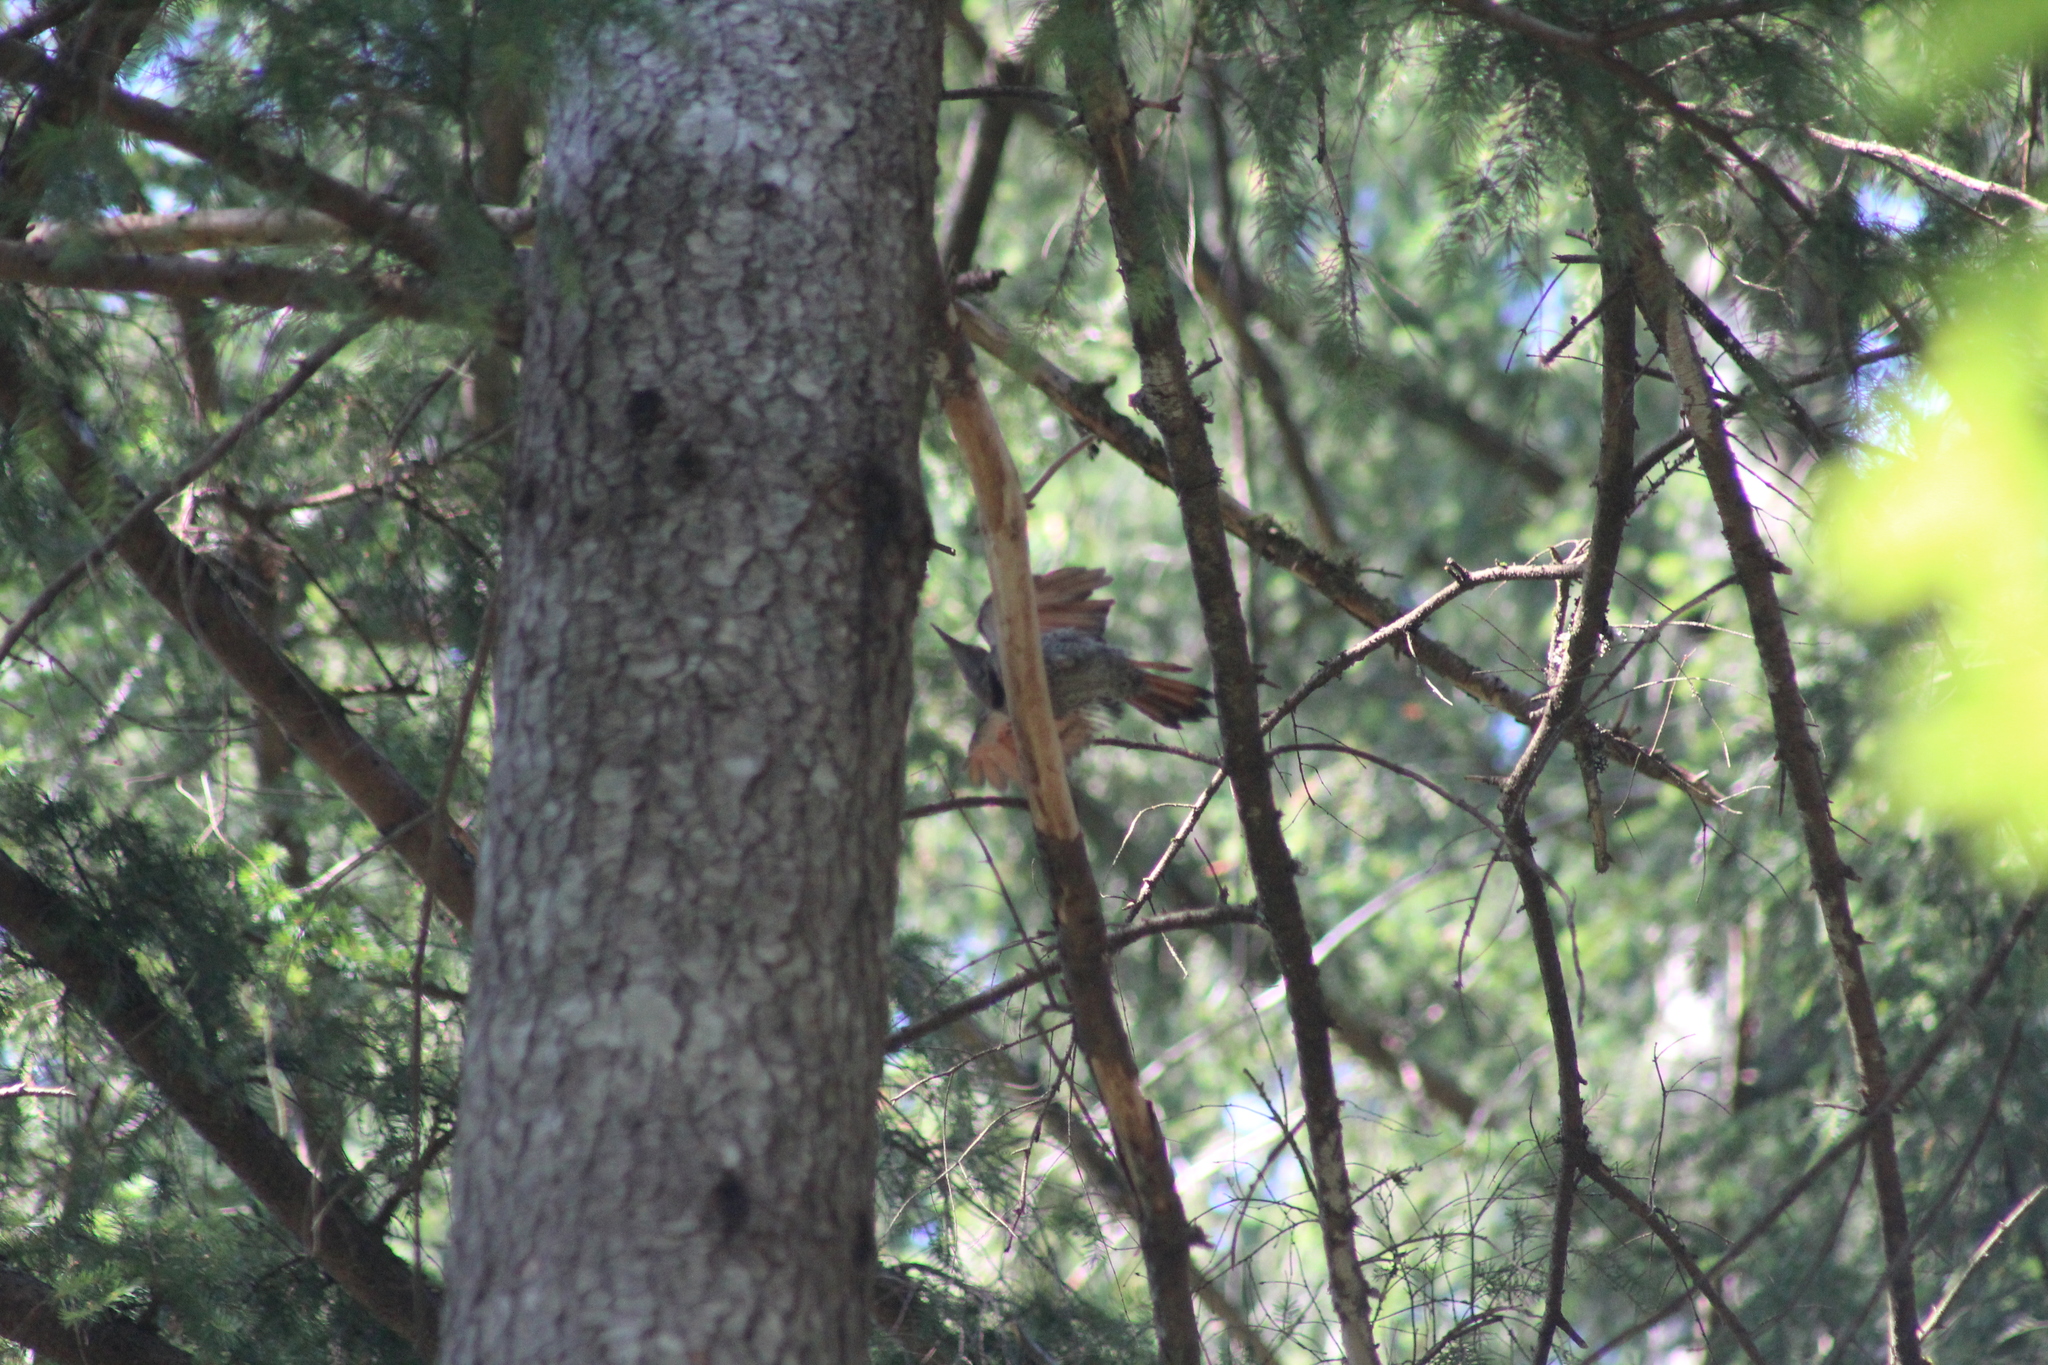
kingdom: Animalia
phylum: Chordata
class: Aves
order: Piciformes
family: Picidae
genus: Colaptes
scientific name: Colaptes auratus
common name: Northern flicker
